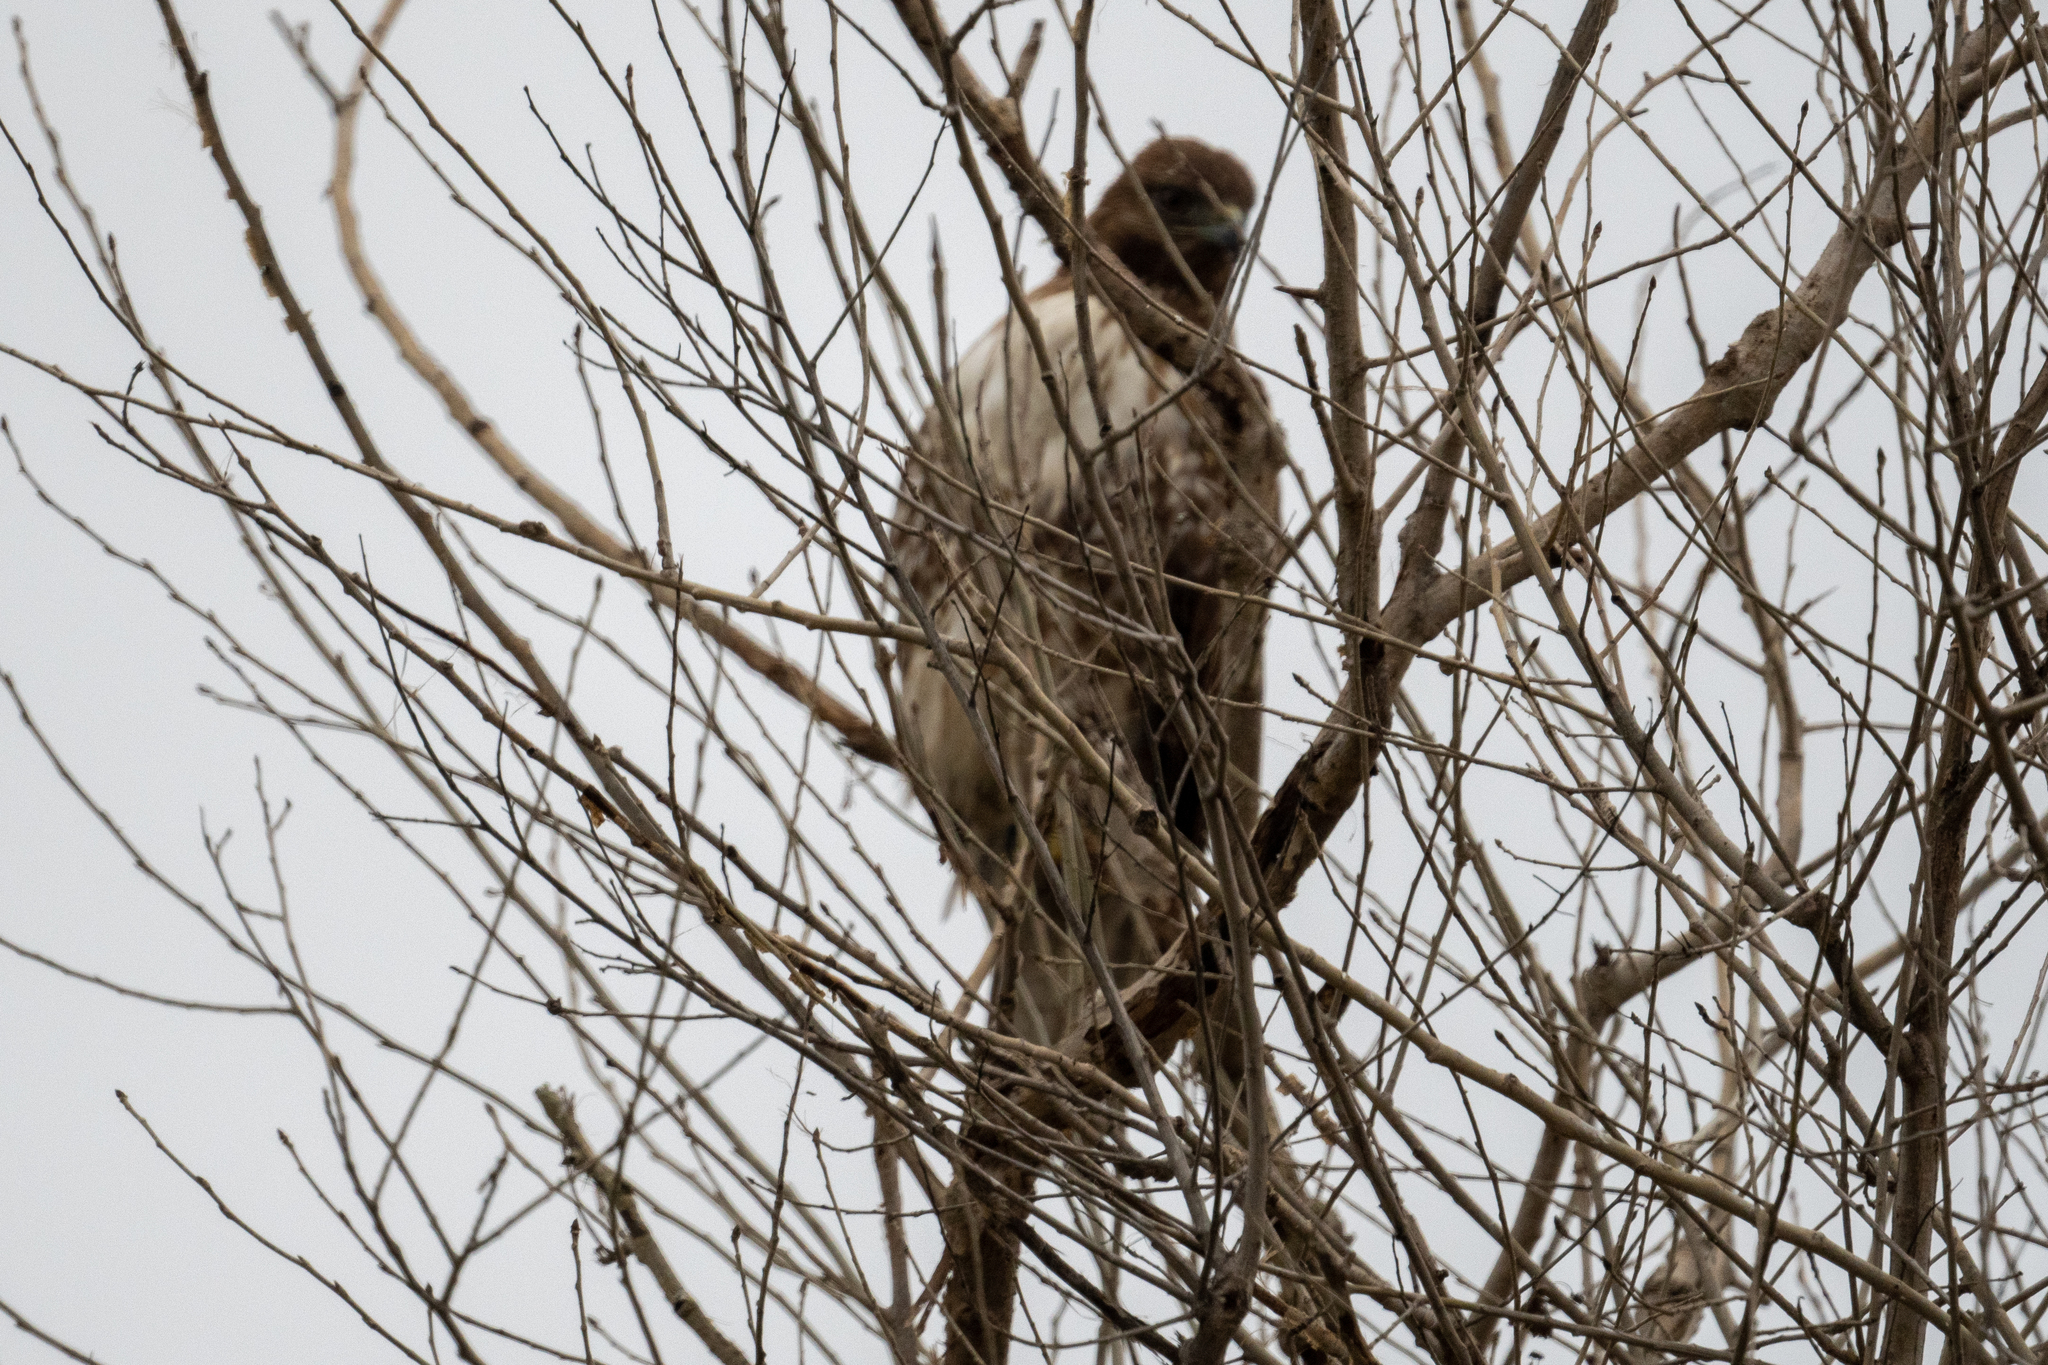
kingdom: Animalia
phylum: Chordata
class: Aves
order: Accipitriformes
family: Accipitridae
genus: Buteo
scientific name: Buteo jamaicensis
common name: Red-tailed hawk
